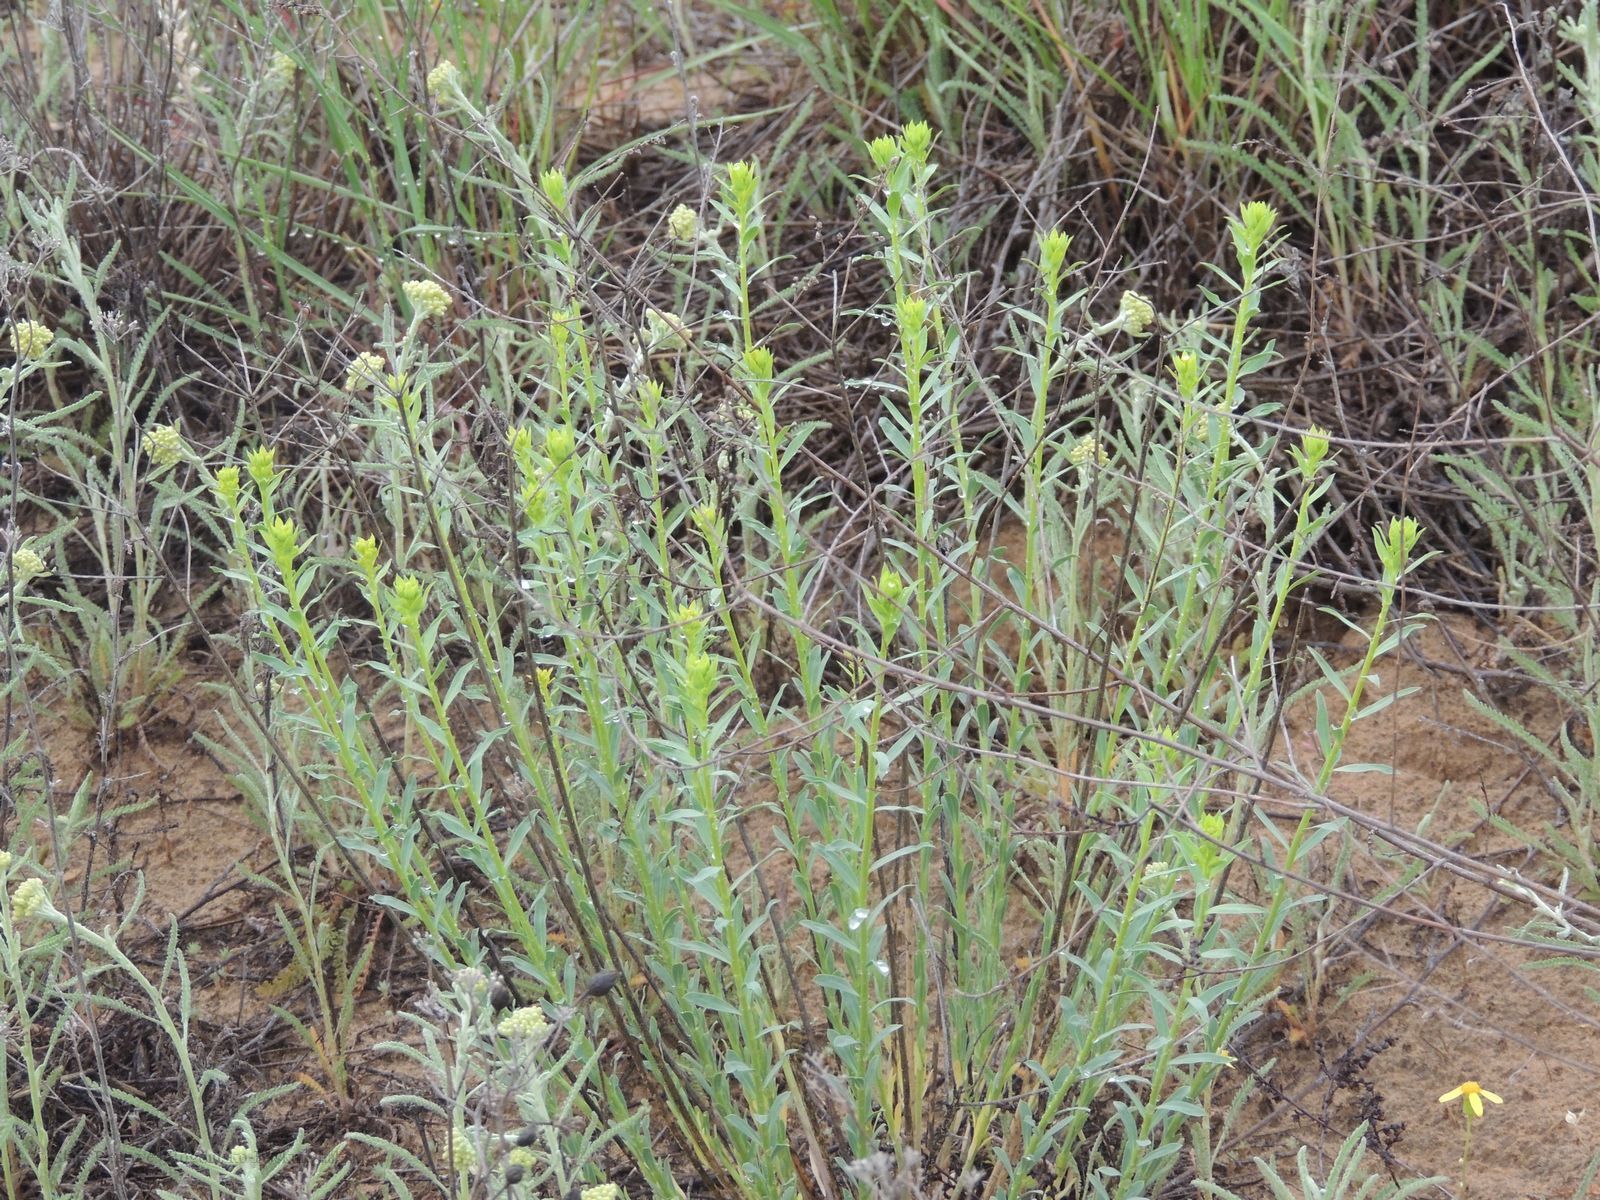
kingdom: Plantae
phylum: Tracheophyta
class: Magnoliopsida
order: Malpighiales
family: Euphorbiaceae
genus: Euphorbia
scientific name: Euphorbia seguieriana
